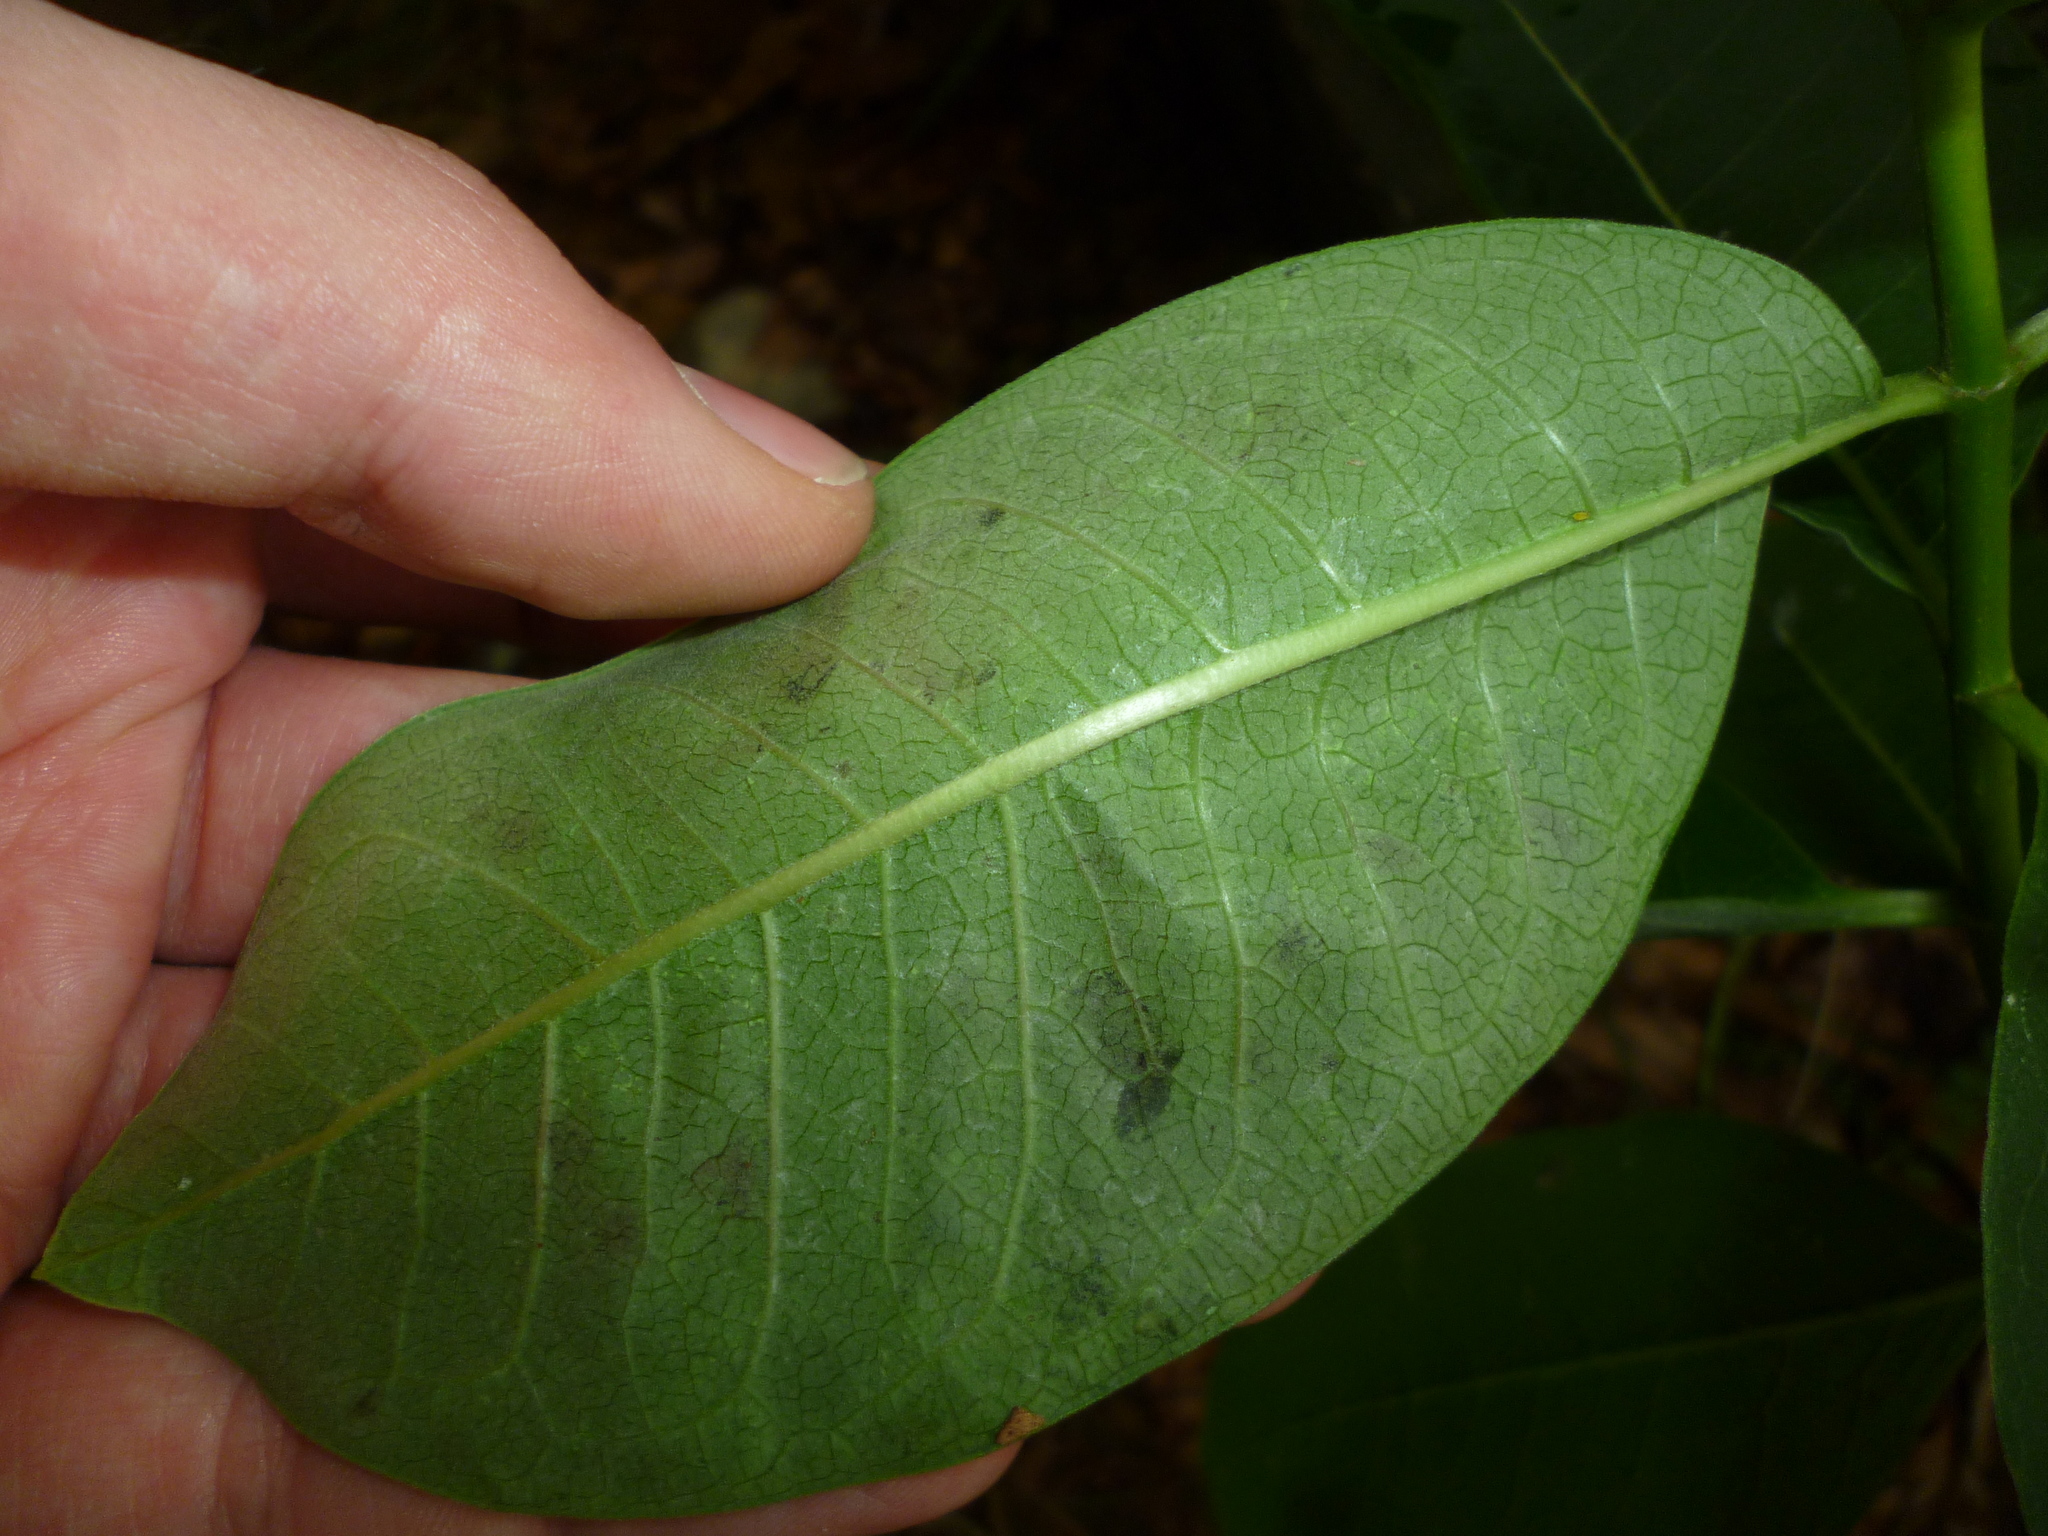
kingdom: Animalia
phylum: Arthropoda
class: Insecta
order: Diptera
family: Agromyzidae
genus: Liriomyza
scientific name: Liriomyza asclepiadis
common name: Milkweed leaf-miner fly
